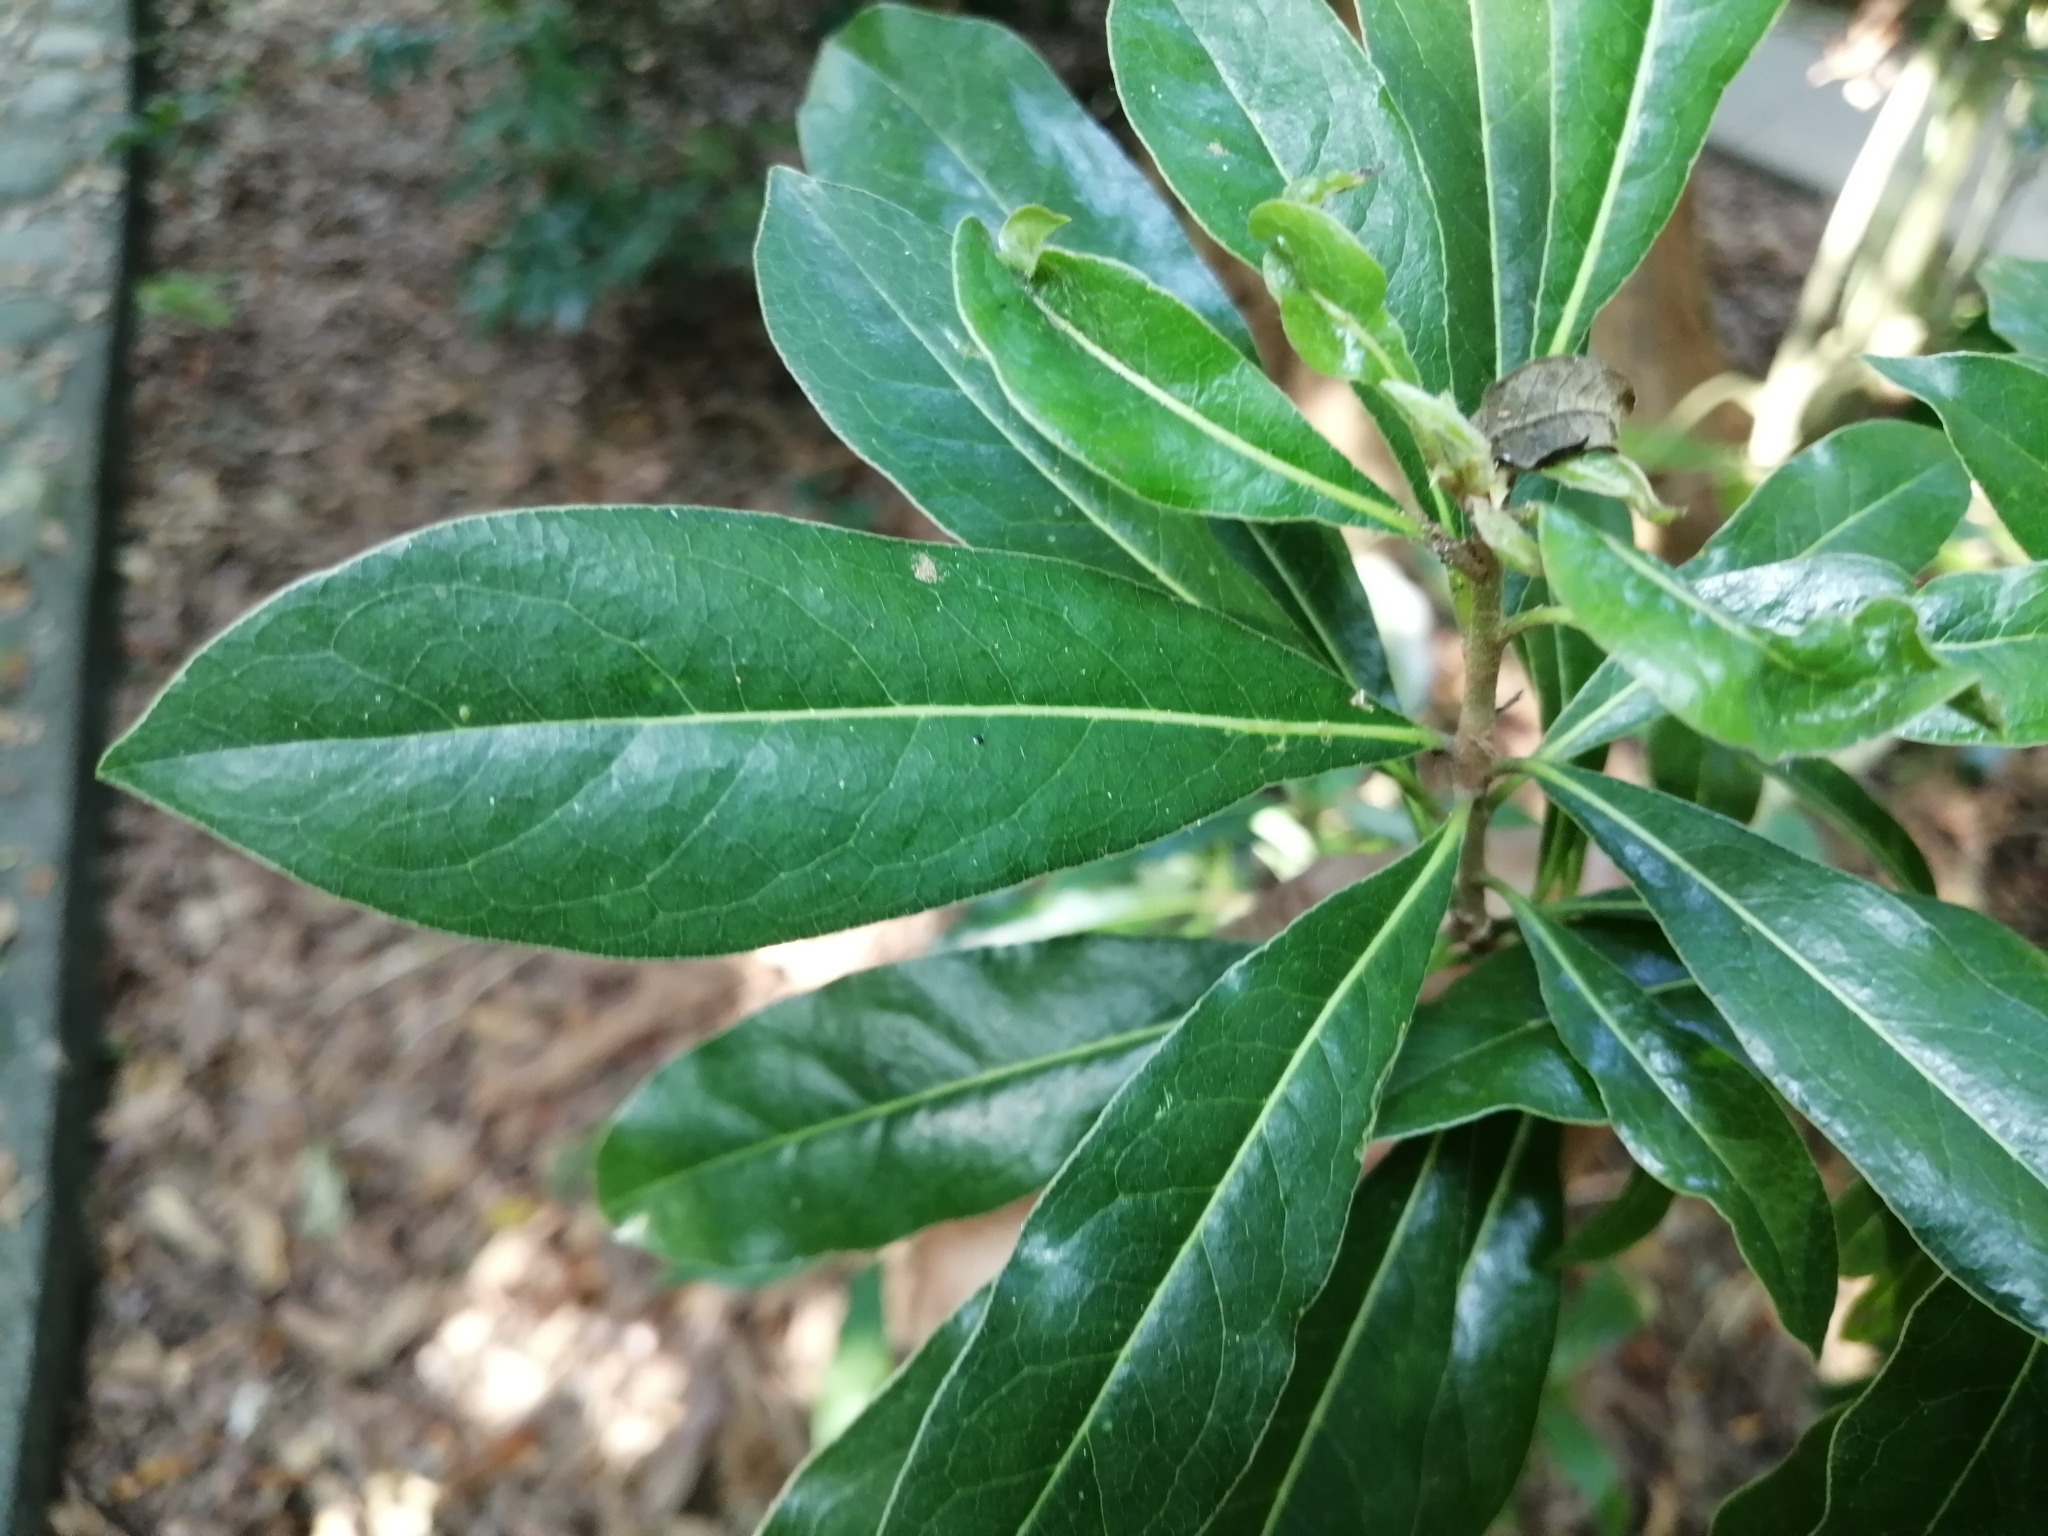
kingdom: Plantae
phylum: Tracheophyta
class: Magnoliopsida
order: Apiales
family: Pittosporaceae
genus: Pittosporum
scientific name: Pittosporum pentandrum
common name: Taiwanese cheesewood
